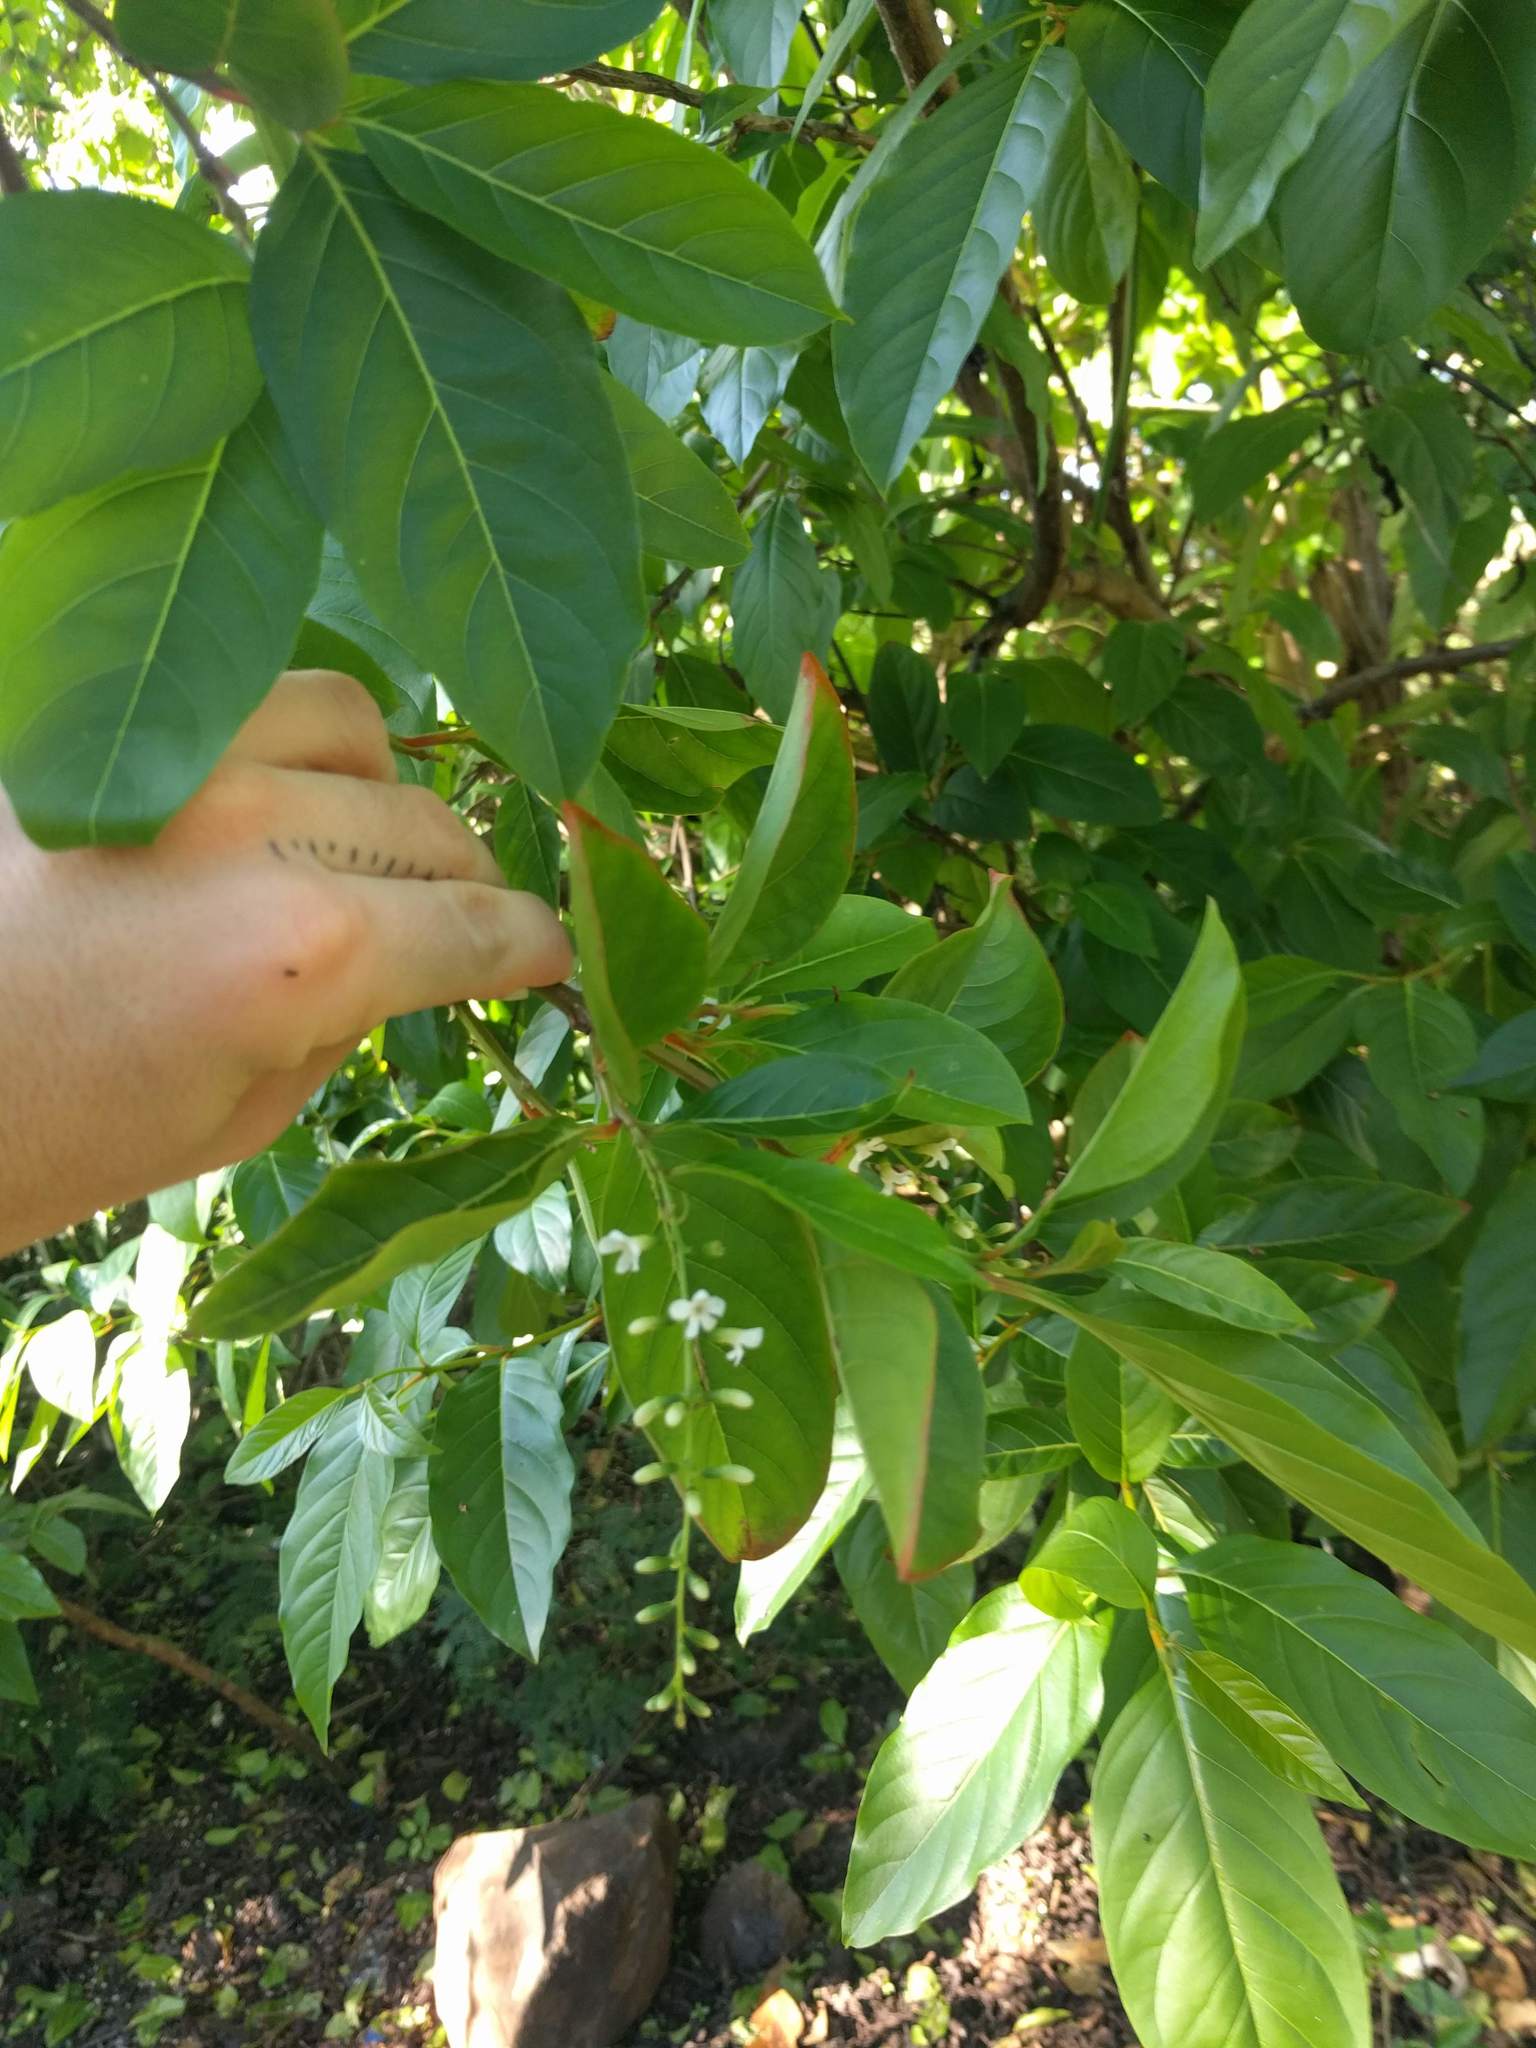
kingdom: Plantae
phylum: Tracheophyta
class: Magnoliopsida
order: Lamiales
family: Verbenaceae
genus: Citharexylum
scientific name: Citharexylum spinosum
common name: Fiddlewood
